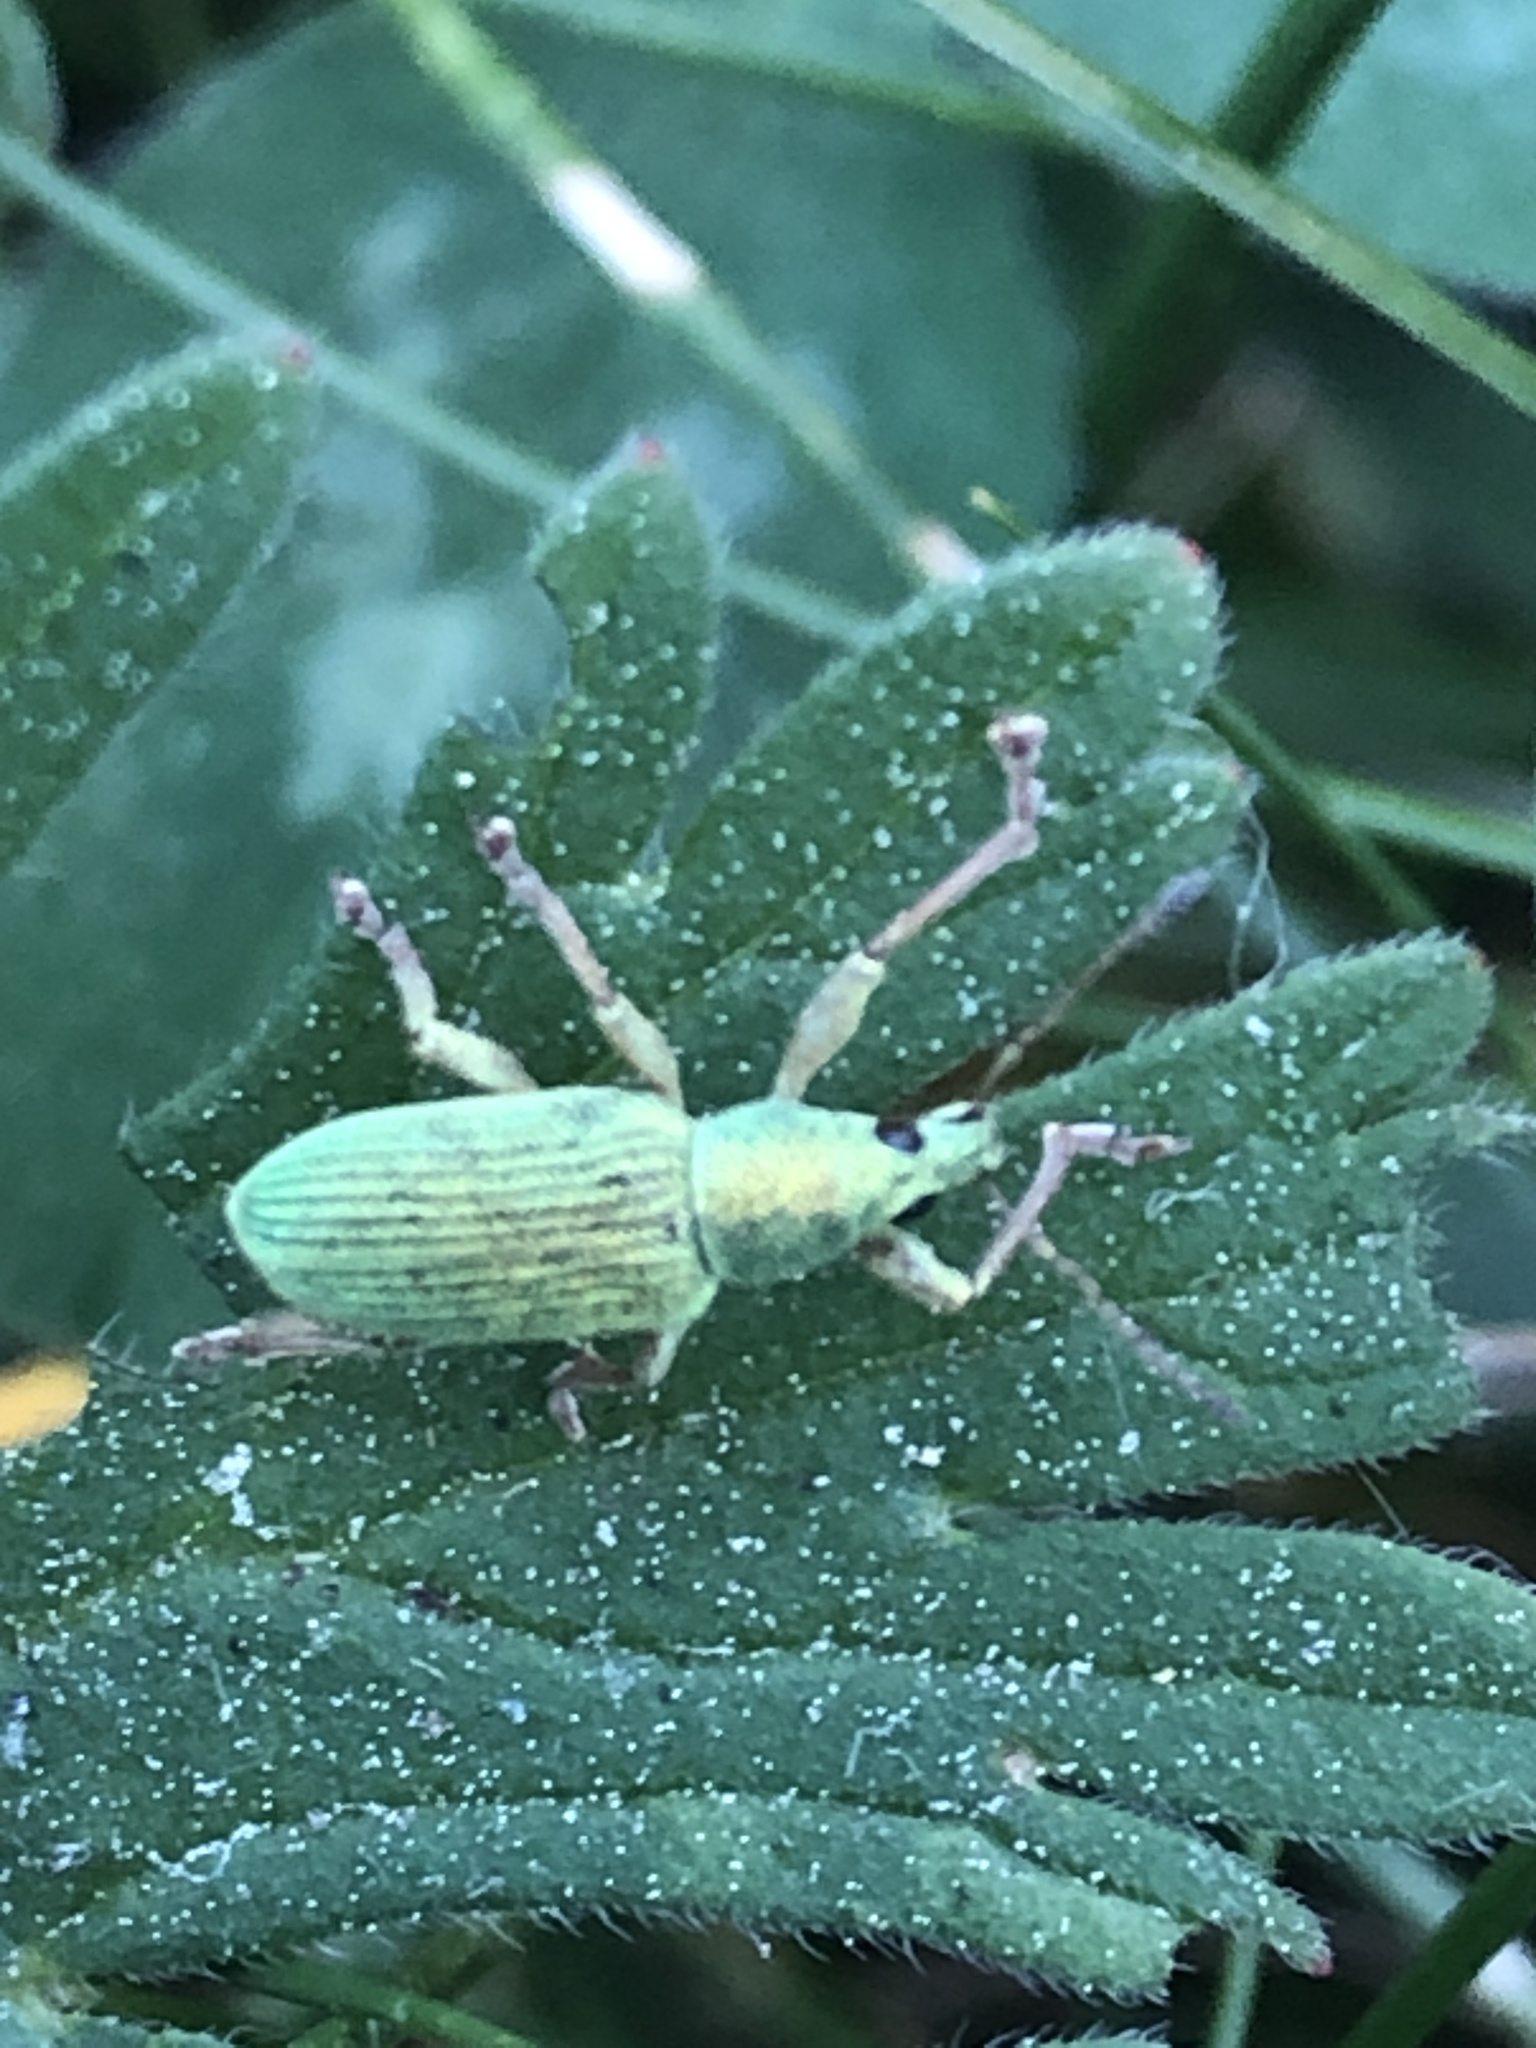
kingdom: Animalia
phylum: Arthropoda
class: Insecta
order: Coleoptera
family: Curculionidae
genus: Polydrusus
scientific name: Polydrusus formosus
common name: Weevil
